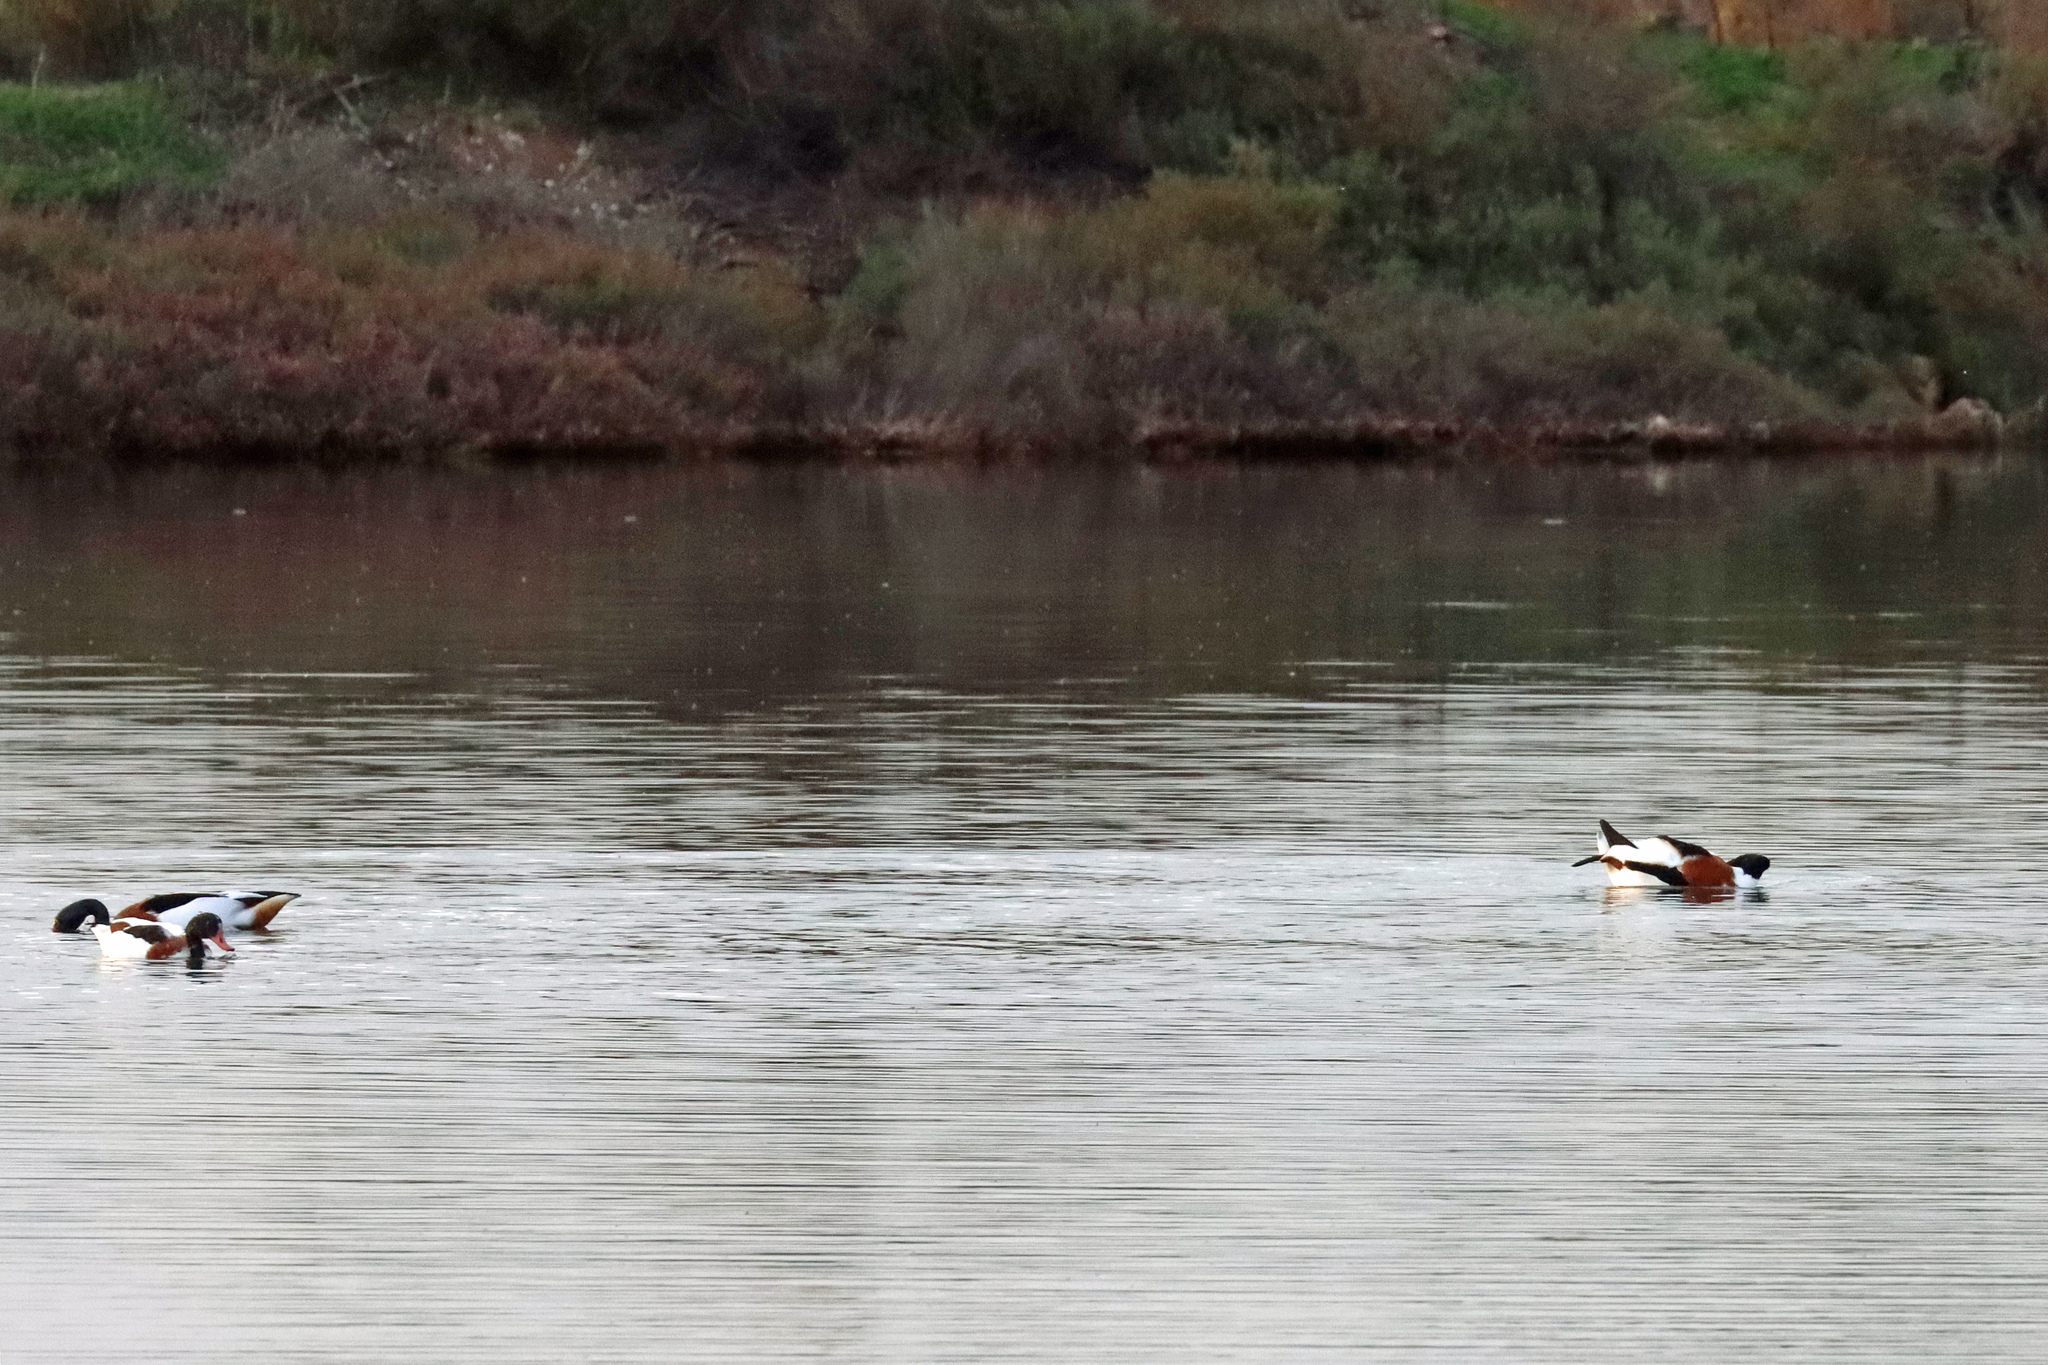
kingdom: Animalia
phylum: Chordata
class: Aves
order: Anseriformes
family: Anatidae
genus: Tadorna
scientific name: Tadorna tadorna
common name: Common shelduck
